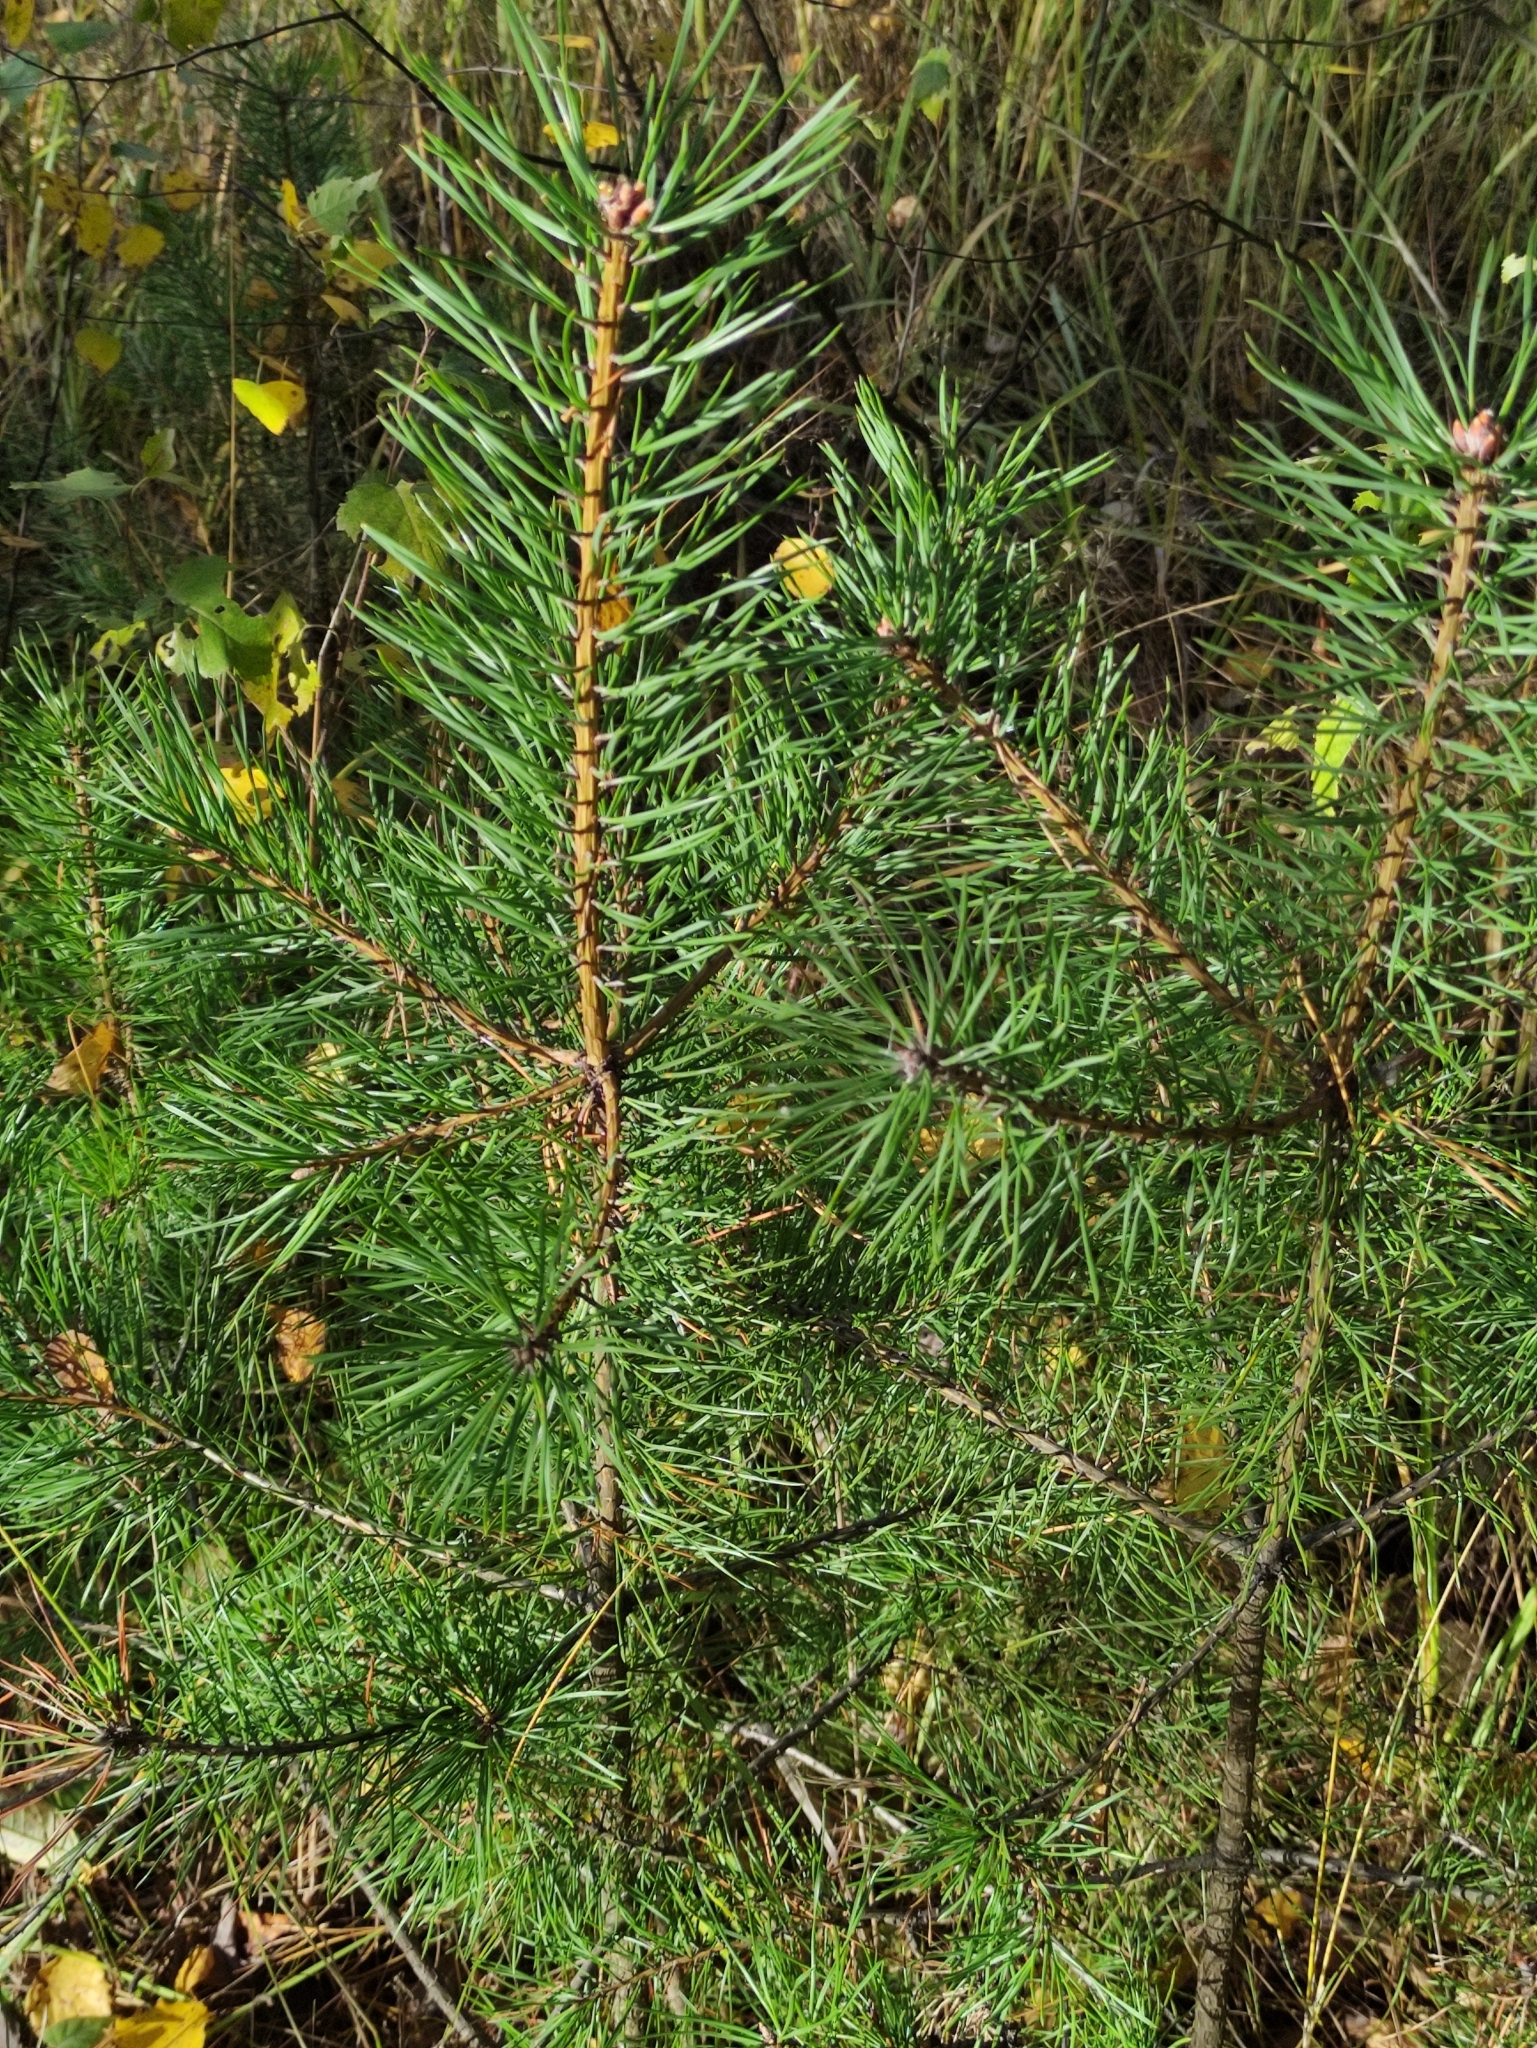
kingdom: Plantae
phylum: Tracheophyta
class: Pinopsida
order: Pinales
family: Pinaceae
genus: Pinus
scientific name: Pinus sylvestris
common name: Scots pine
